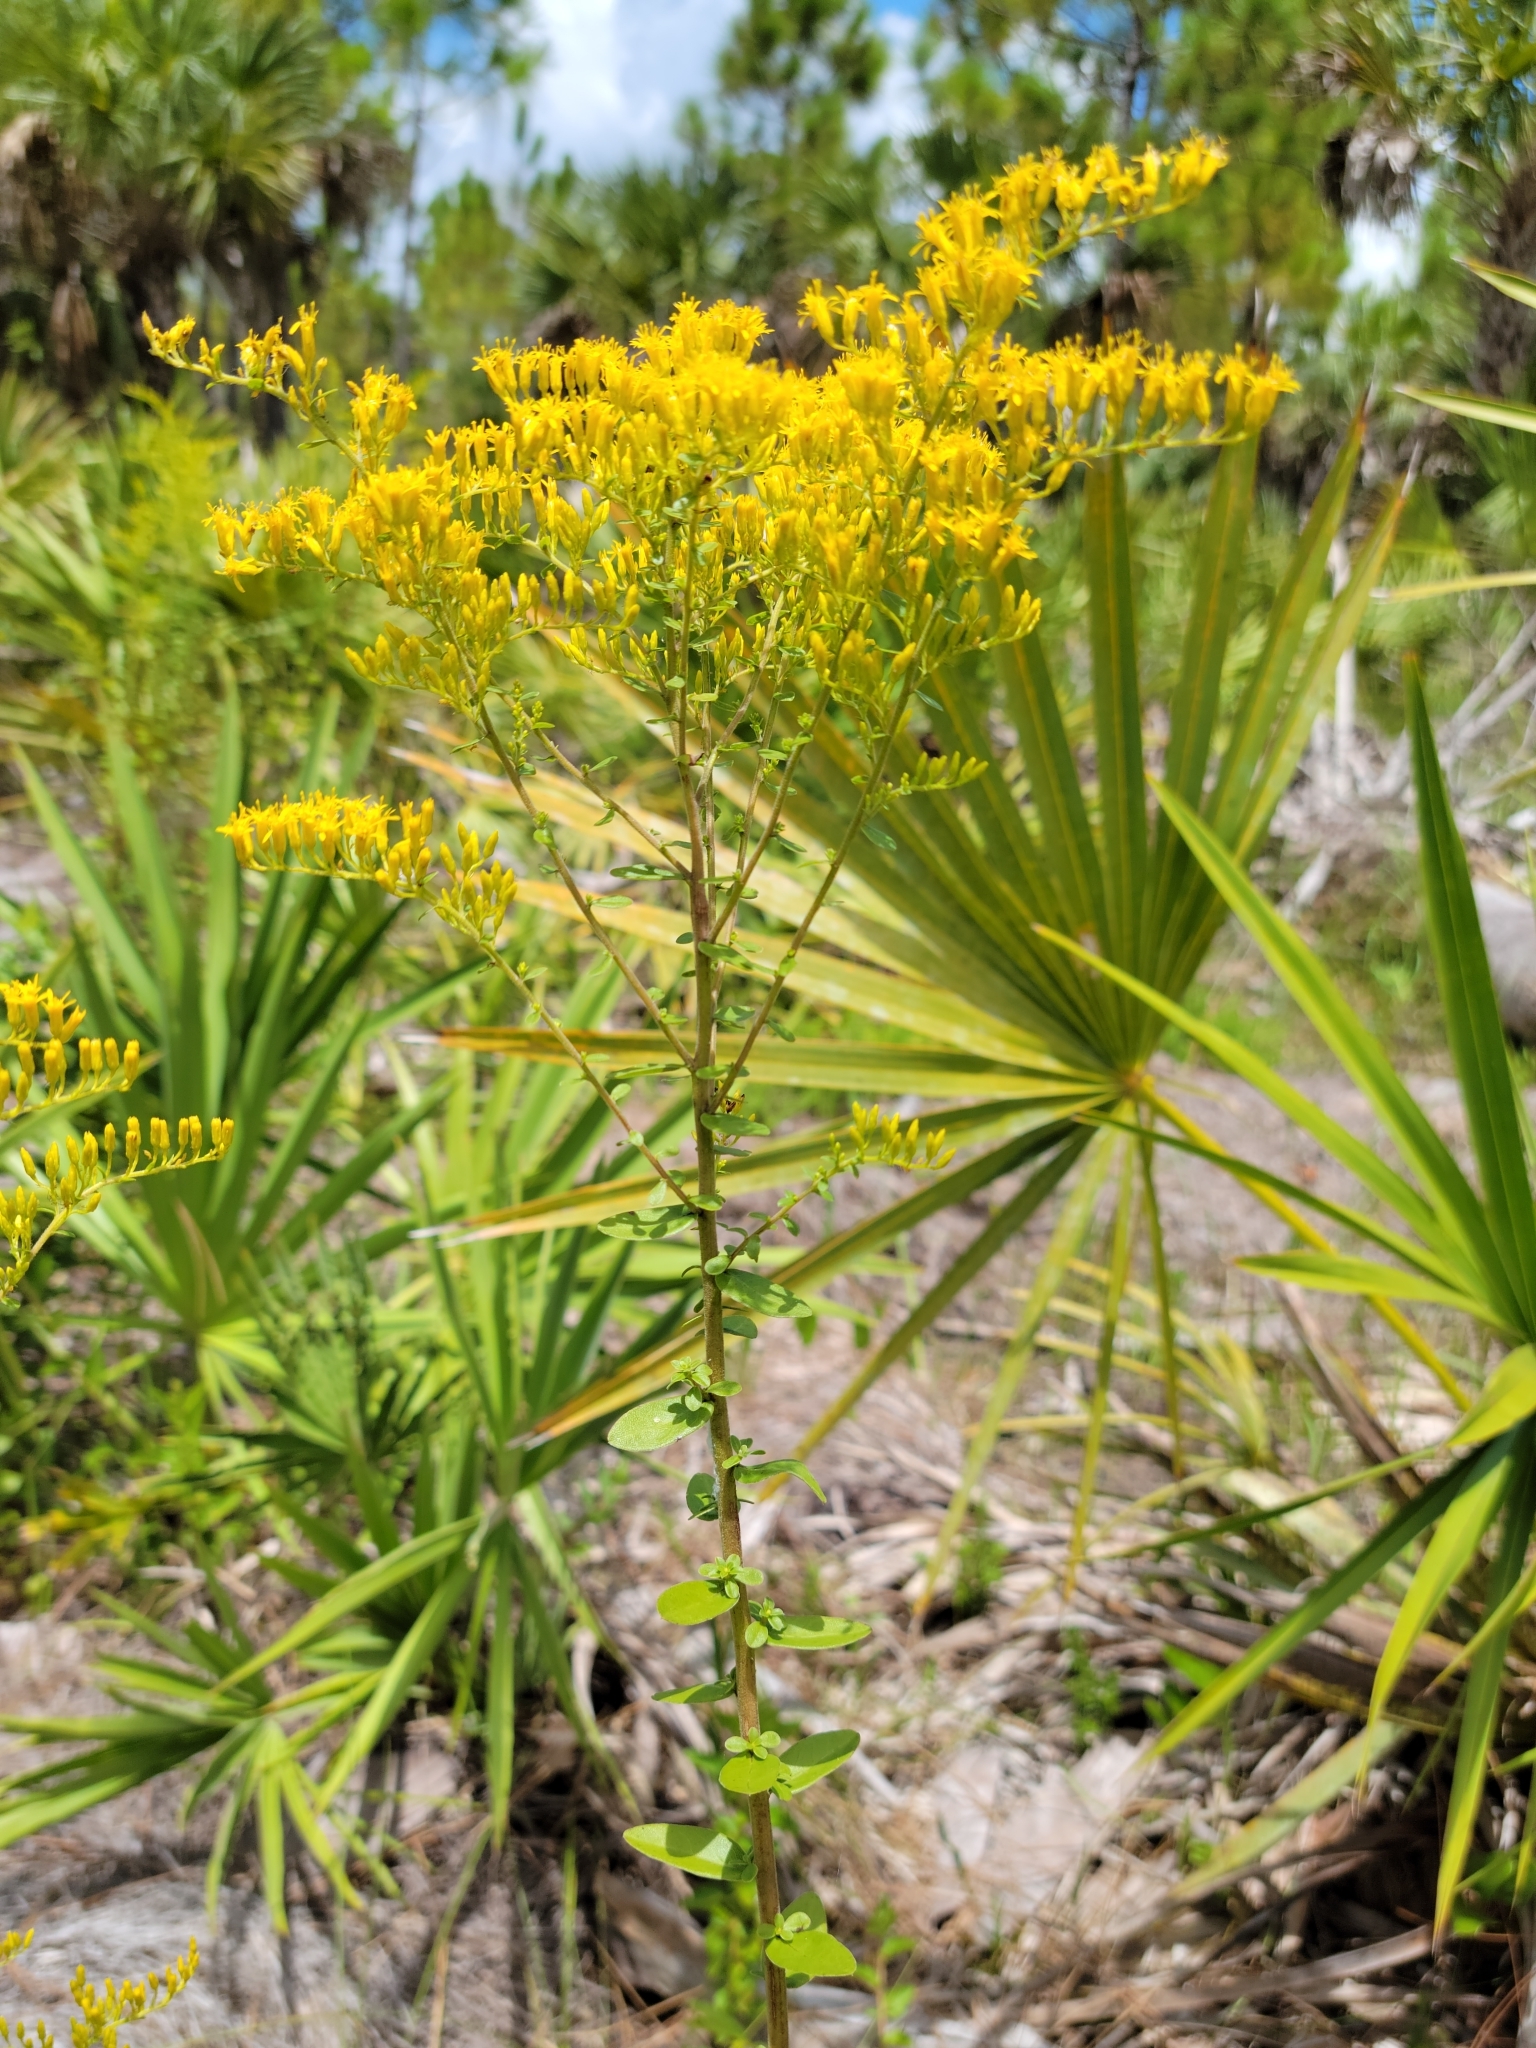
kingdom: Plantae
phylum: Tracheophyta
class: Magnoliopsida
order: Asterales
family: Asteraceae
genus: Solidago
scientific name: Solidago chapmanii
